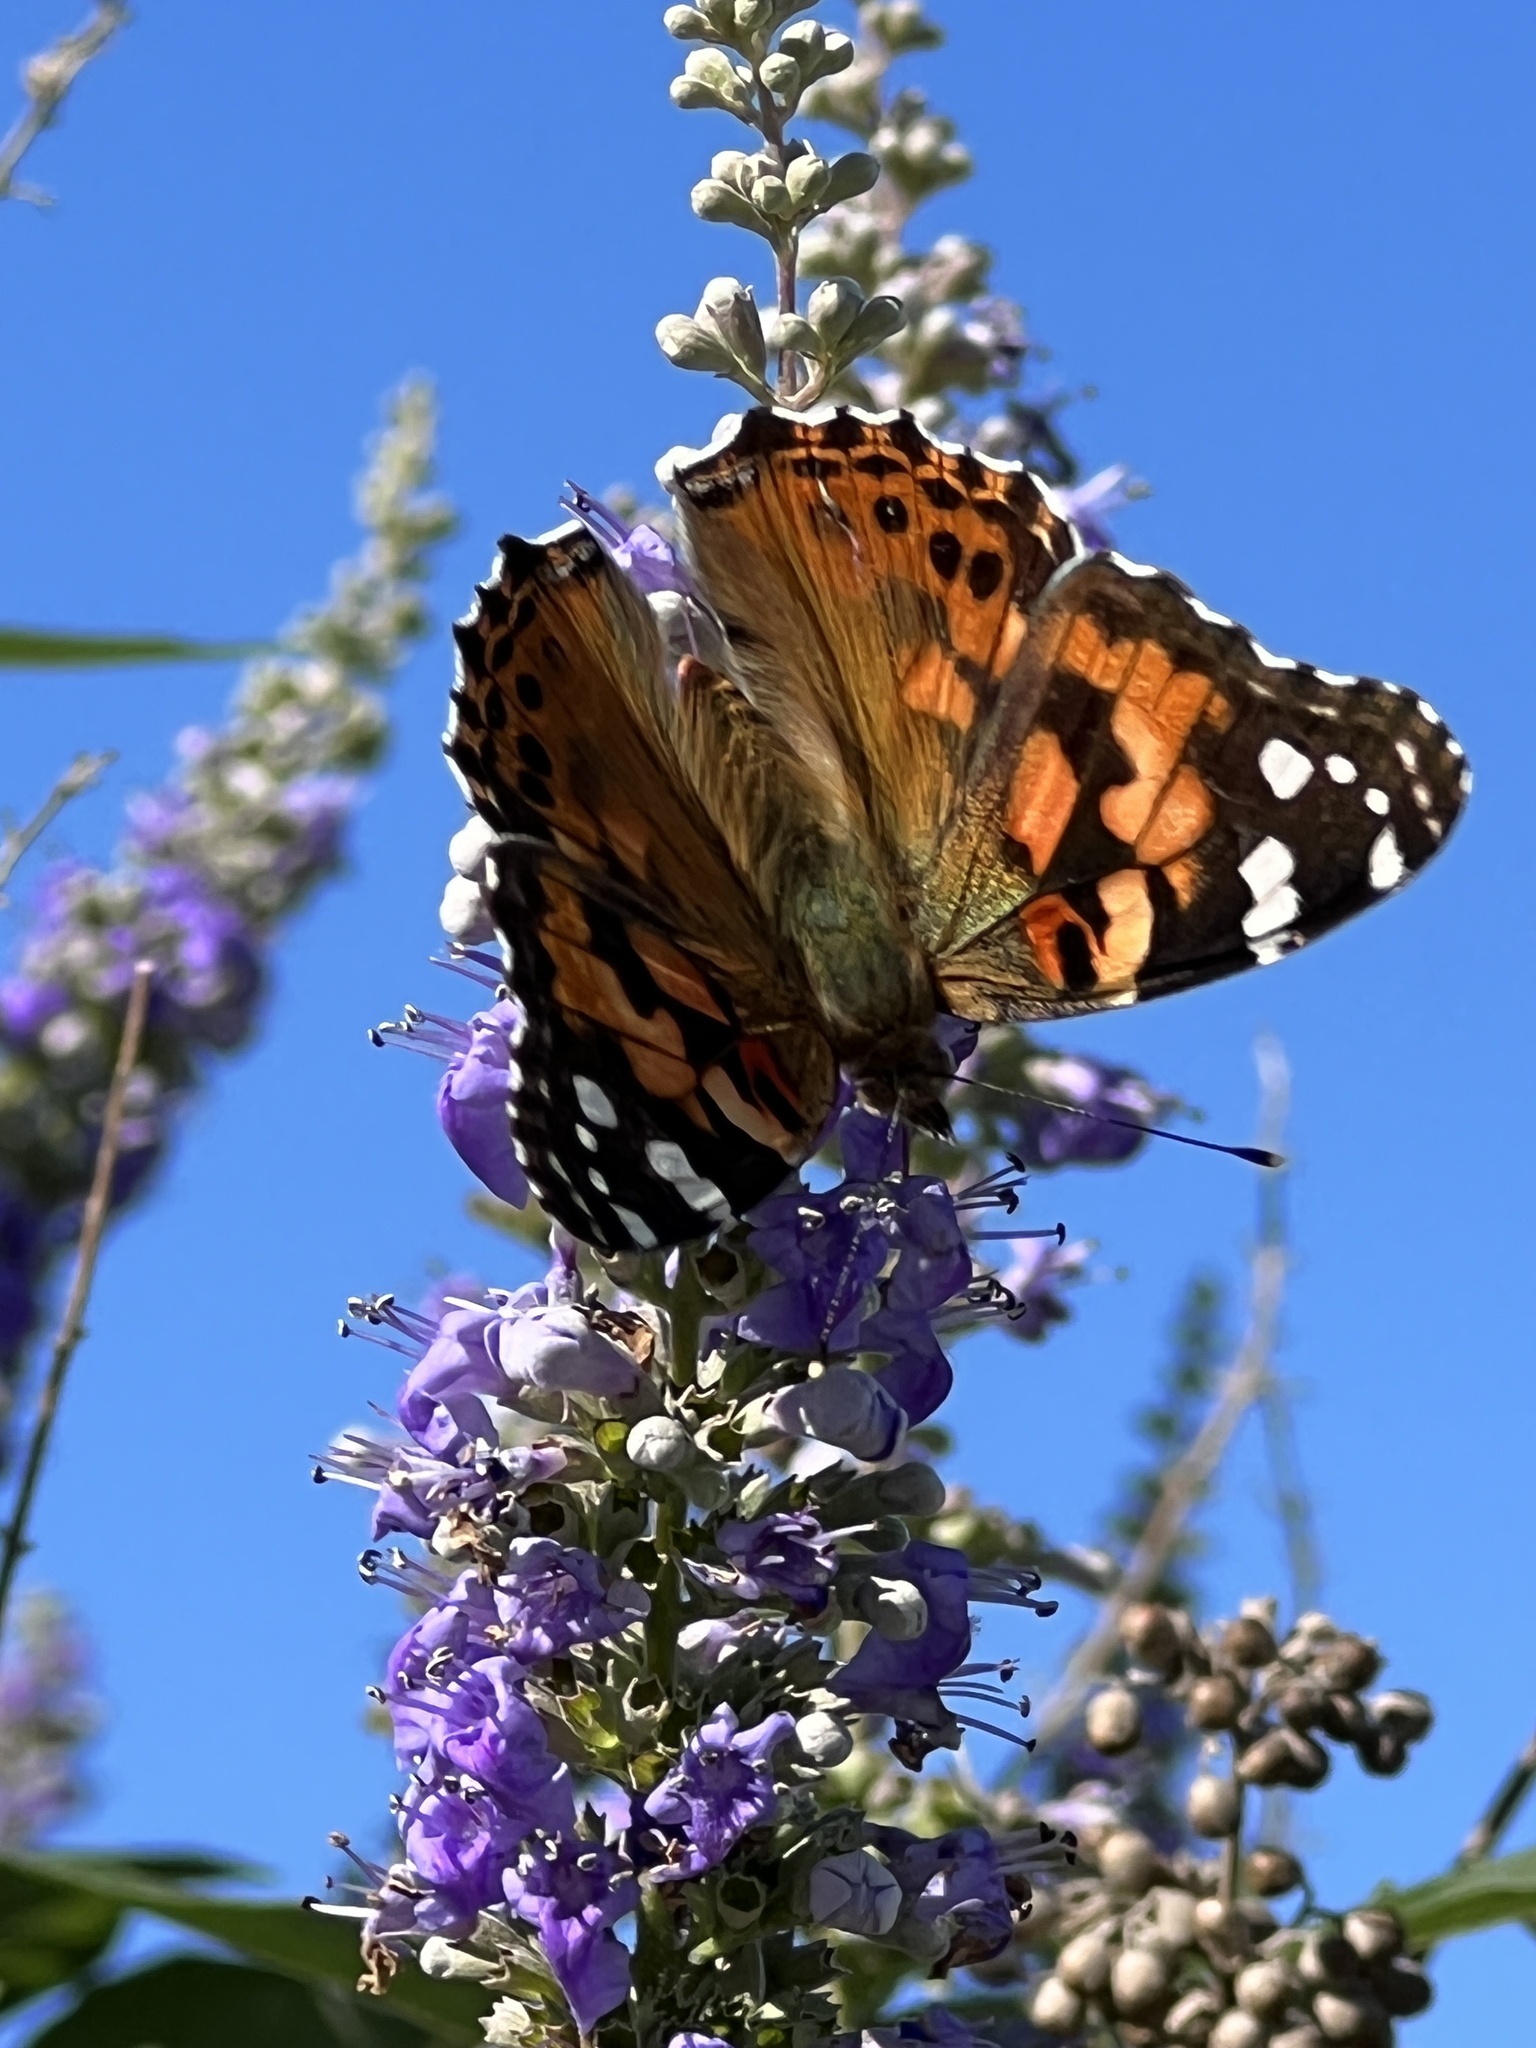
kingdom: Animalia
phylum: Arthropoda
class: Insecta
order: Lepidoptera
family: Nymphalidae
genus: Vanessa
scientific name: Vanessa cardui
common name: Painted lady
